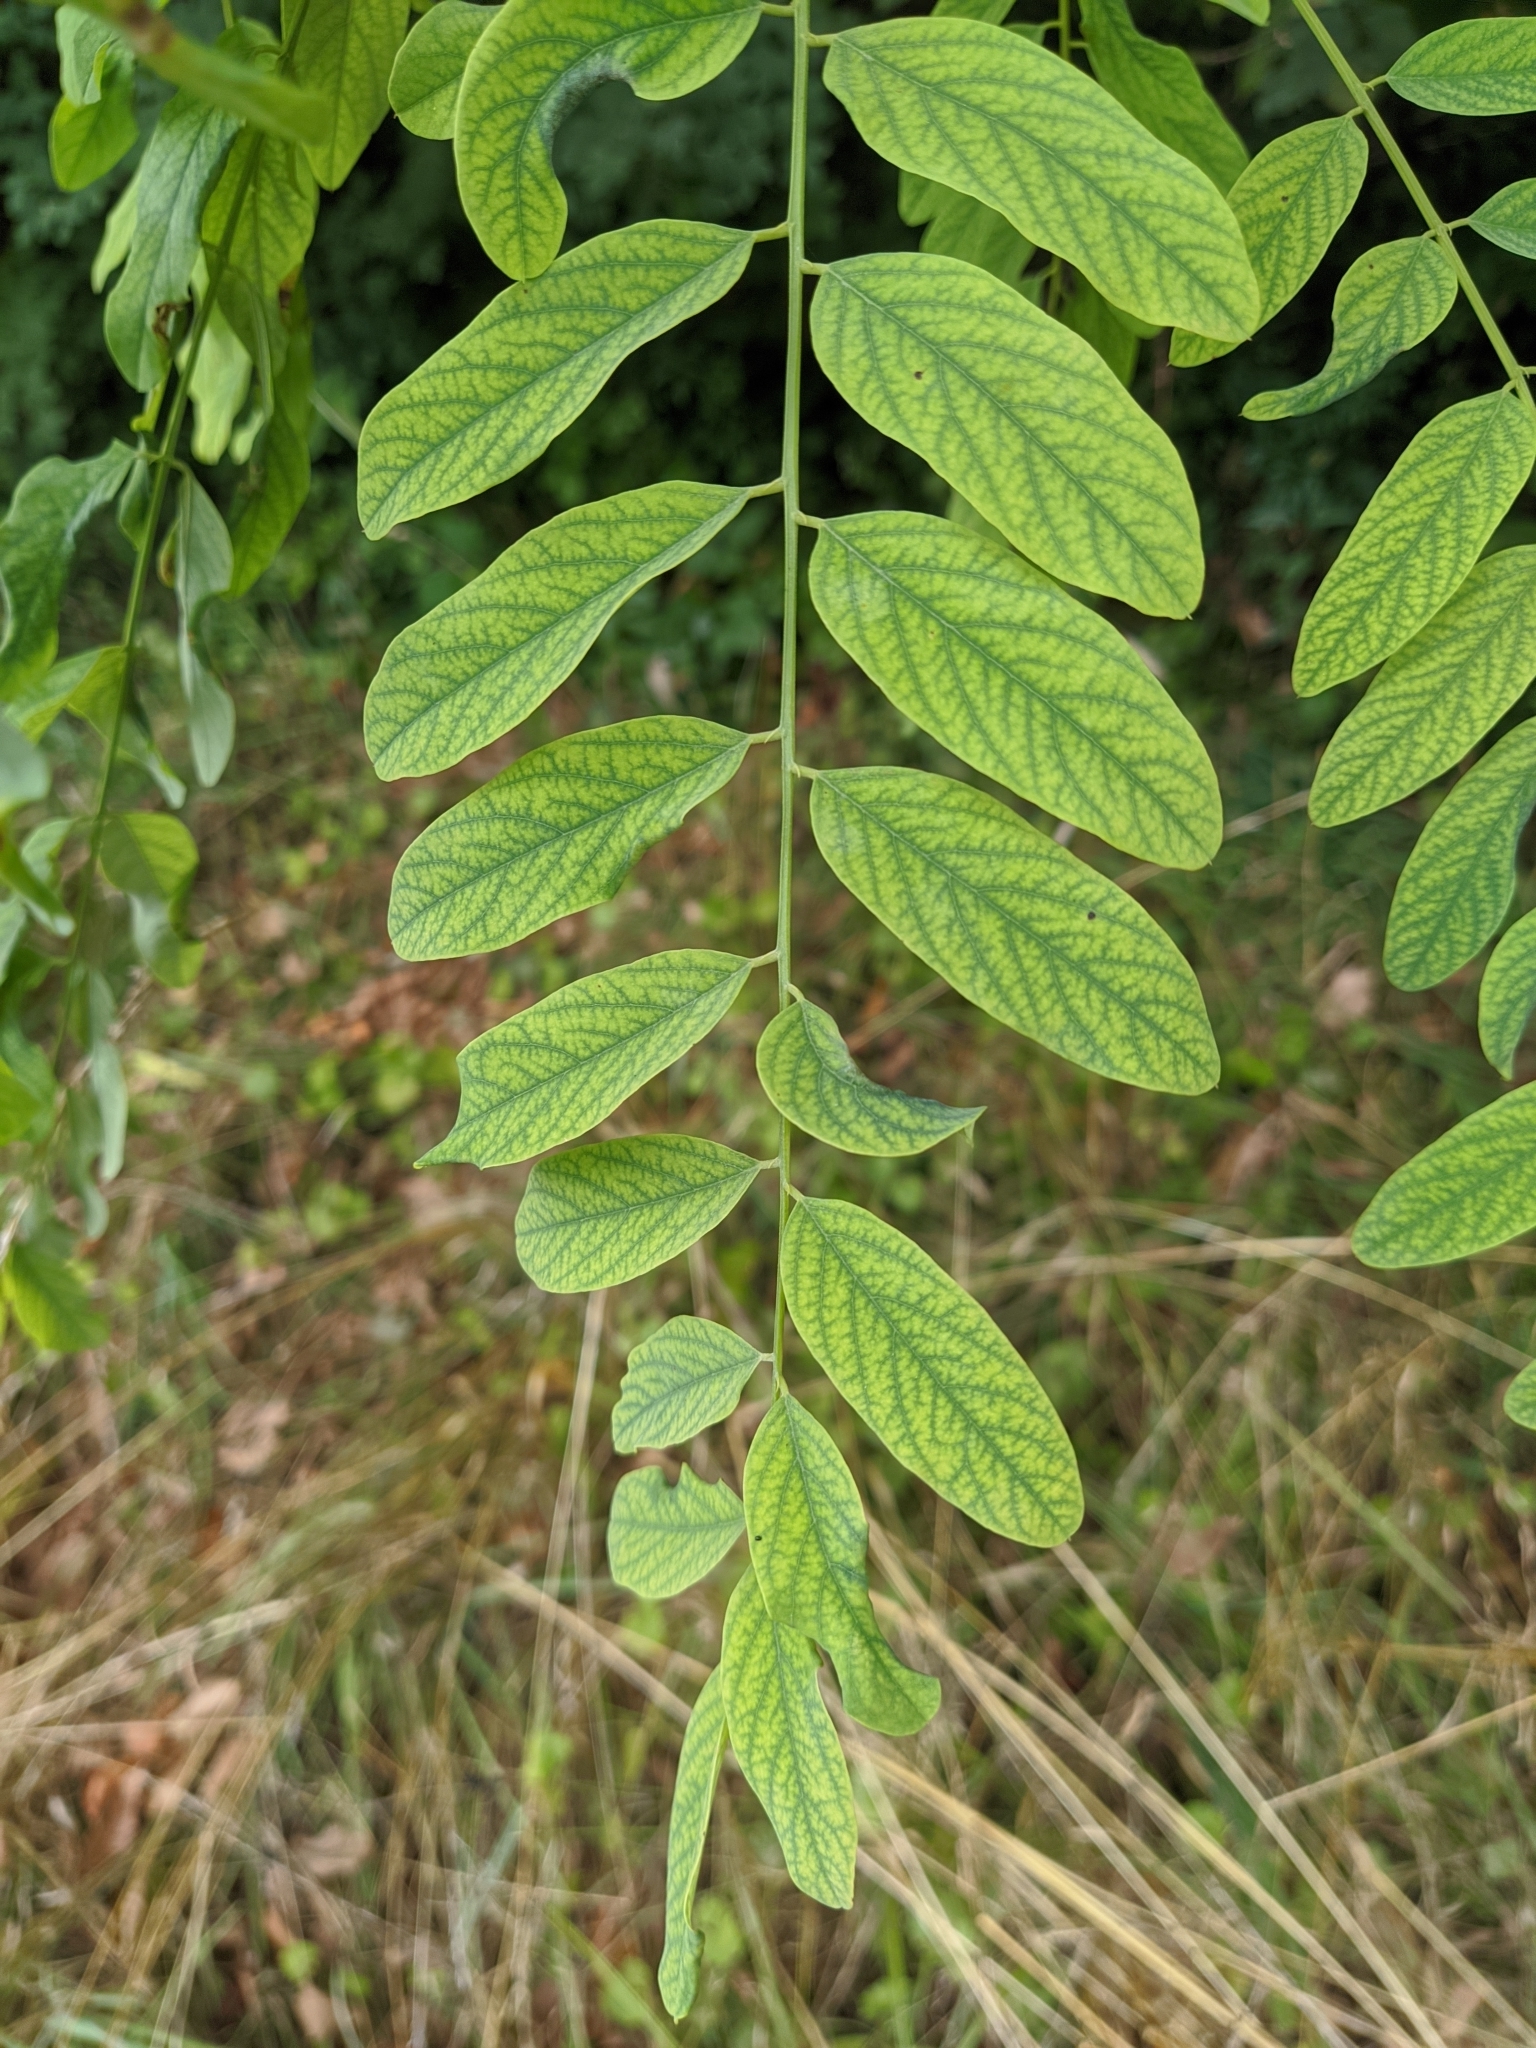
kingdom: Plantae
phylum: Tracheophyta
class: Magnoliopsida
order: Fabales
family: Fabaceae
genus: Robinia
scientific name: Robinia pseudoacacia
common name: Black locust
